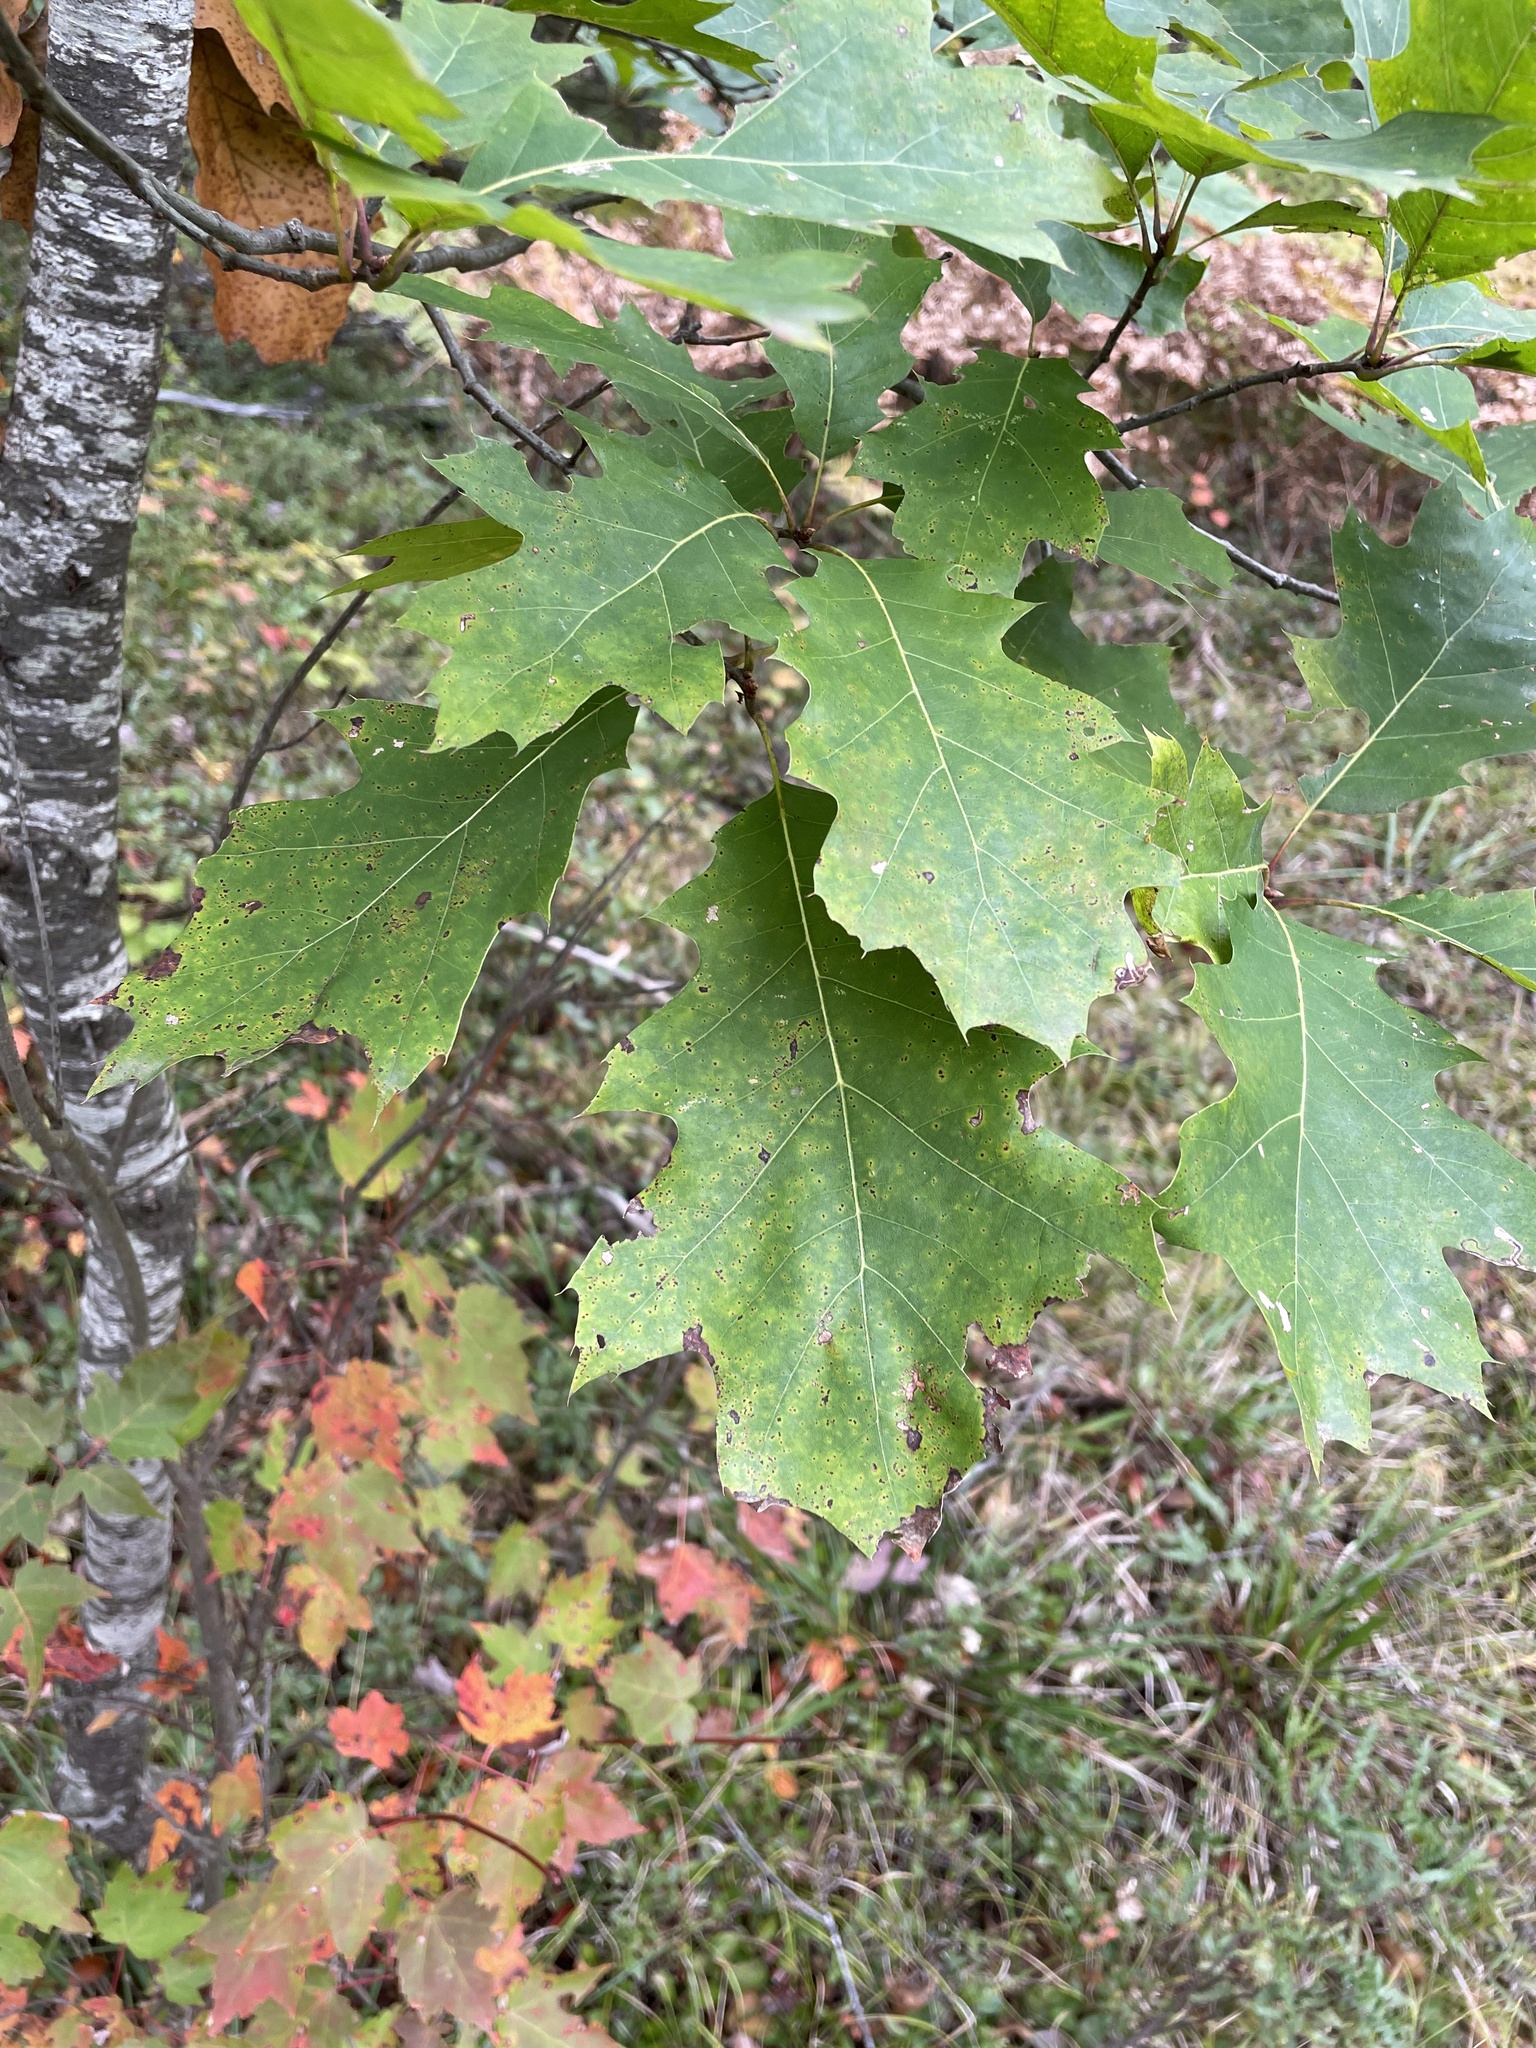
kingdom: Plantae
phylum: Tracheophyta
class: Magnoliopsida
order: Fagales
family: Fagaceae
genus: Quercus
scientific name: Quercus rubra
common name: Red oak
